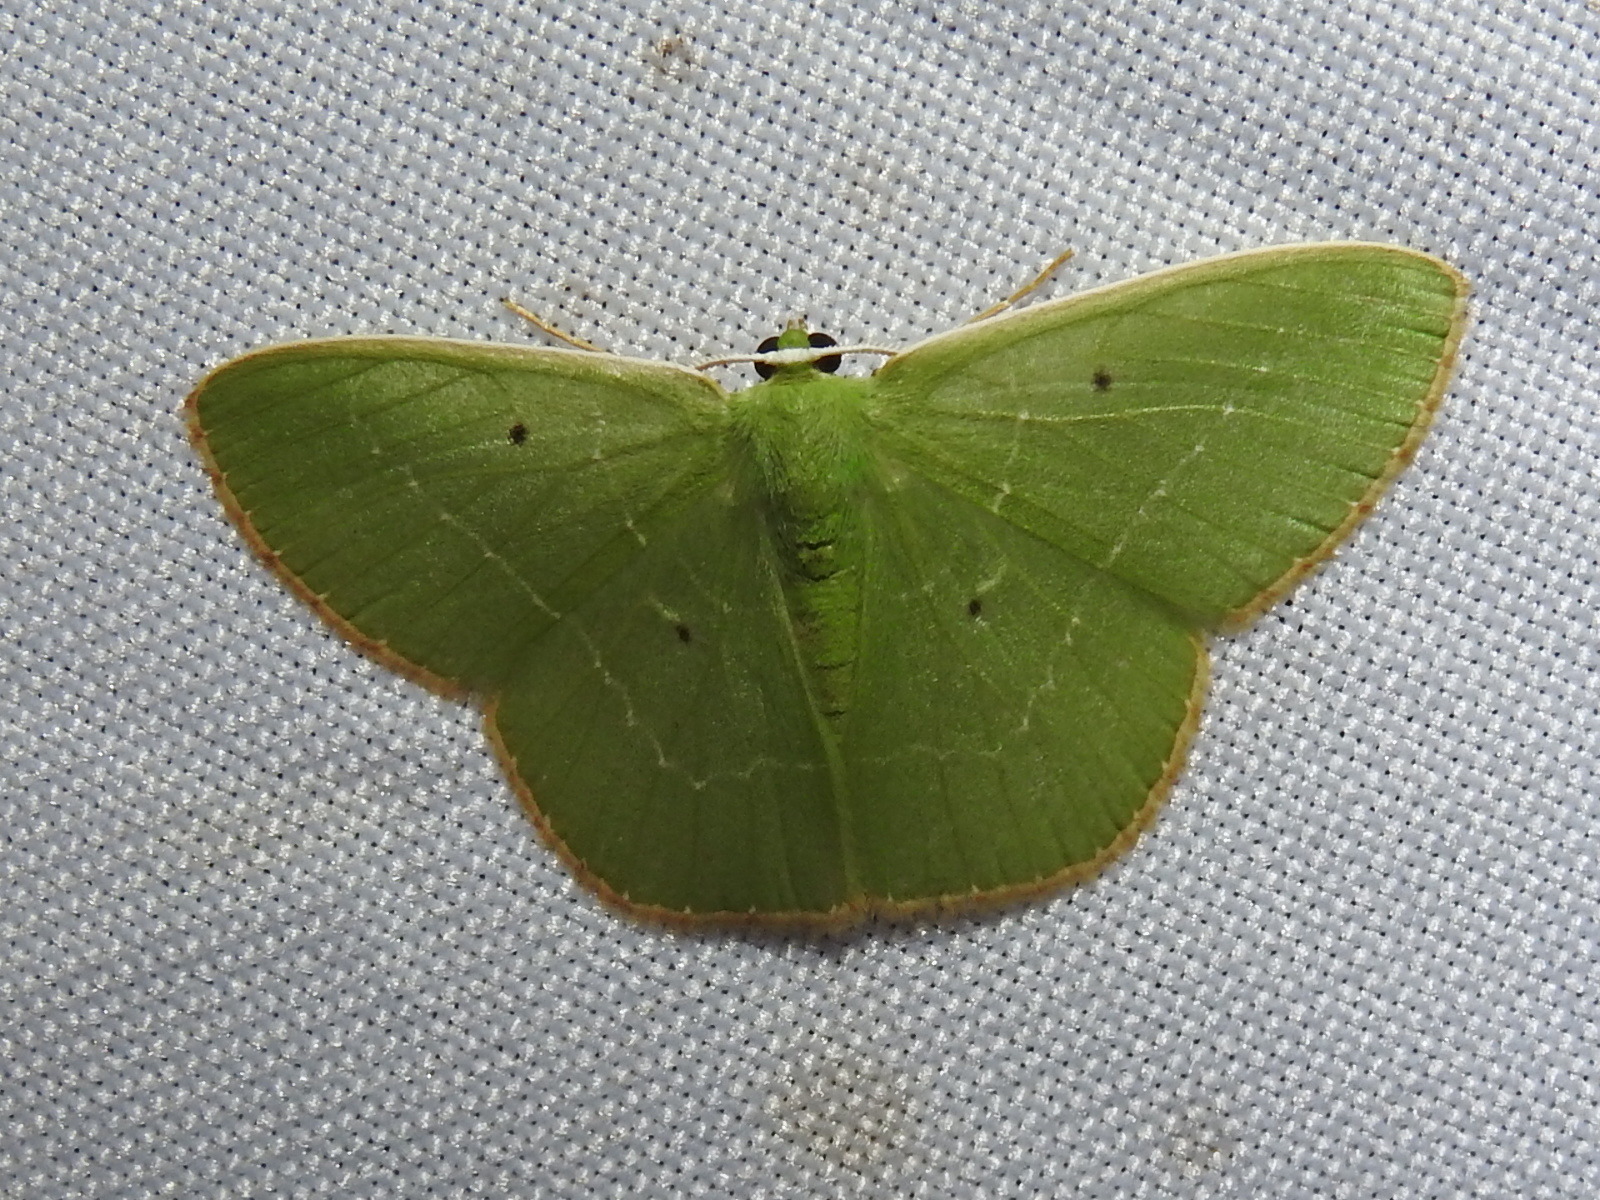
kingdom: Animalia
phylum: Arthropoda
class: Insecta
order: Lepidoptera
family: Geometridae
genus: Nemoria
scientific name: Nemoria remota
